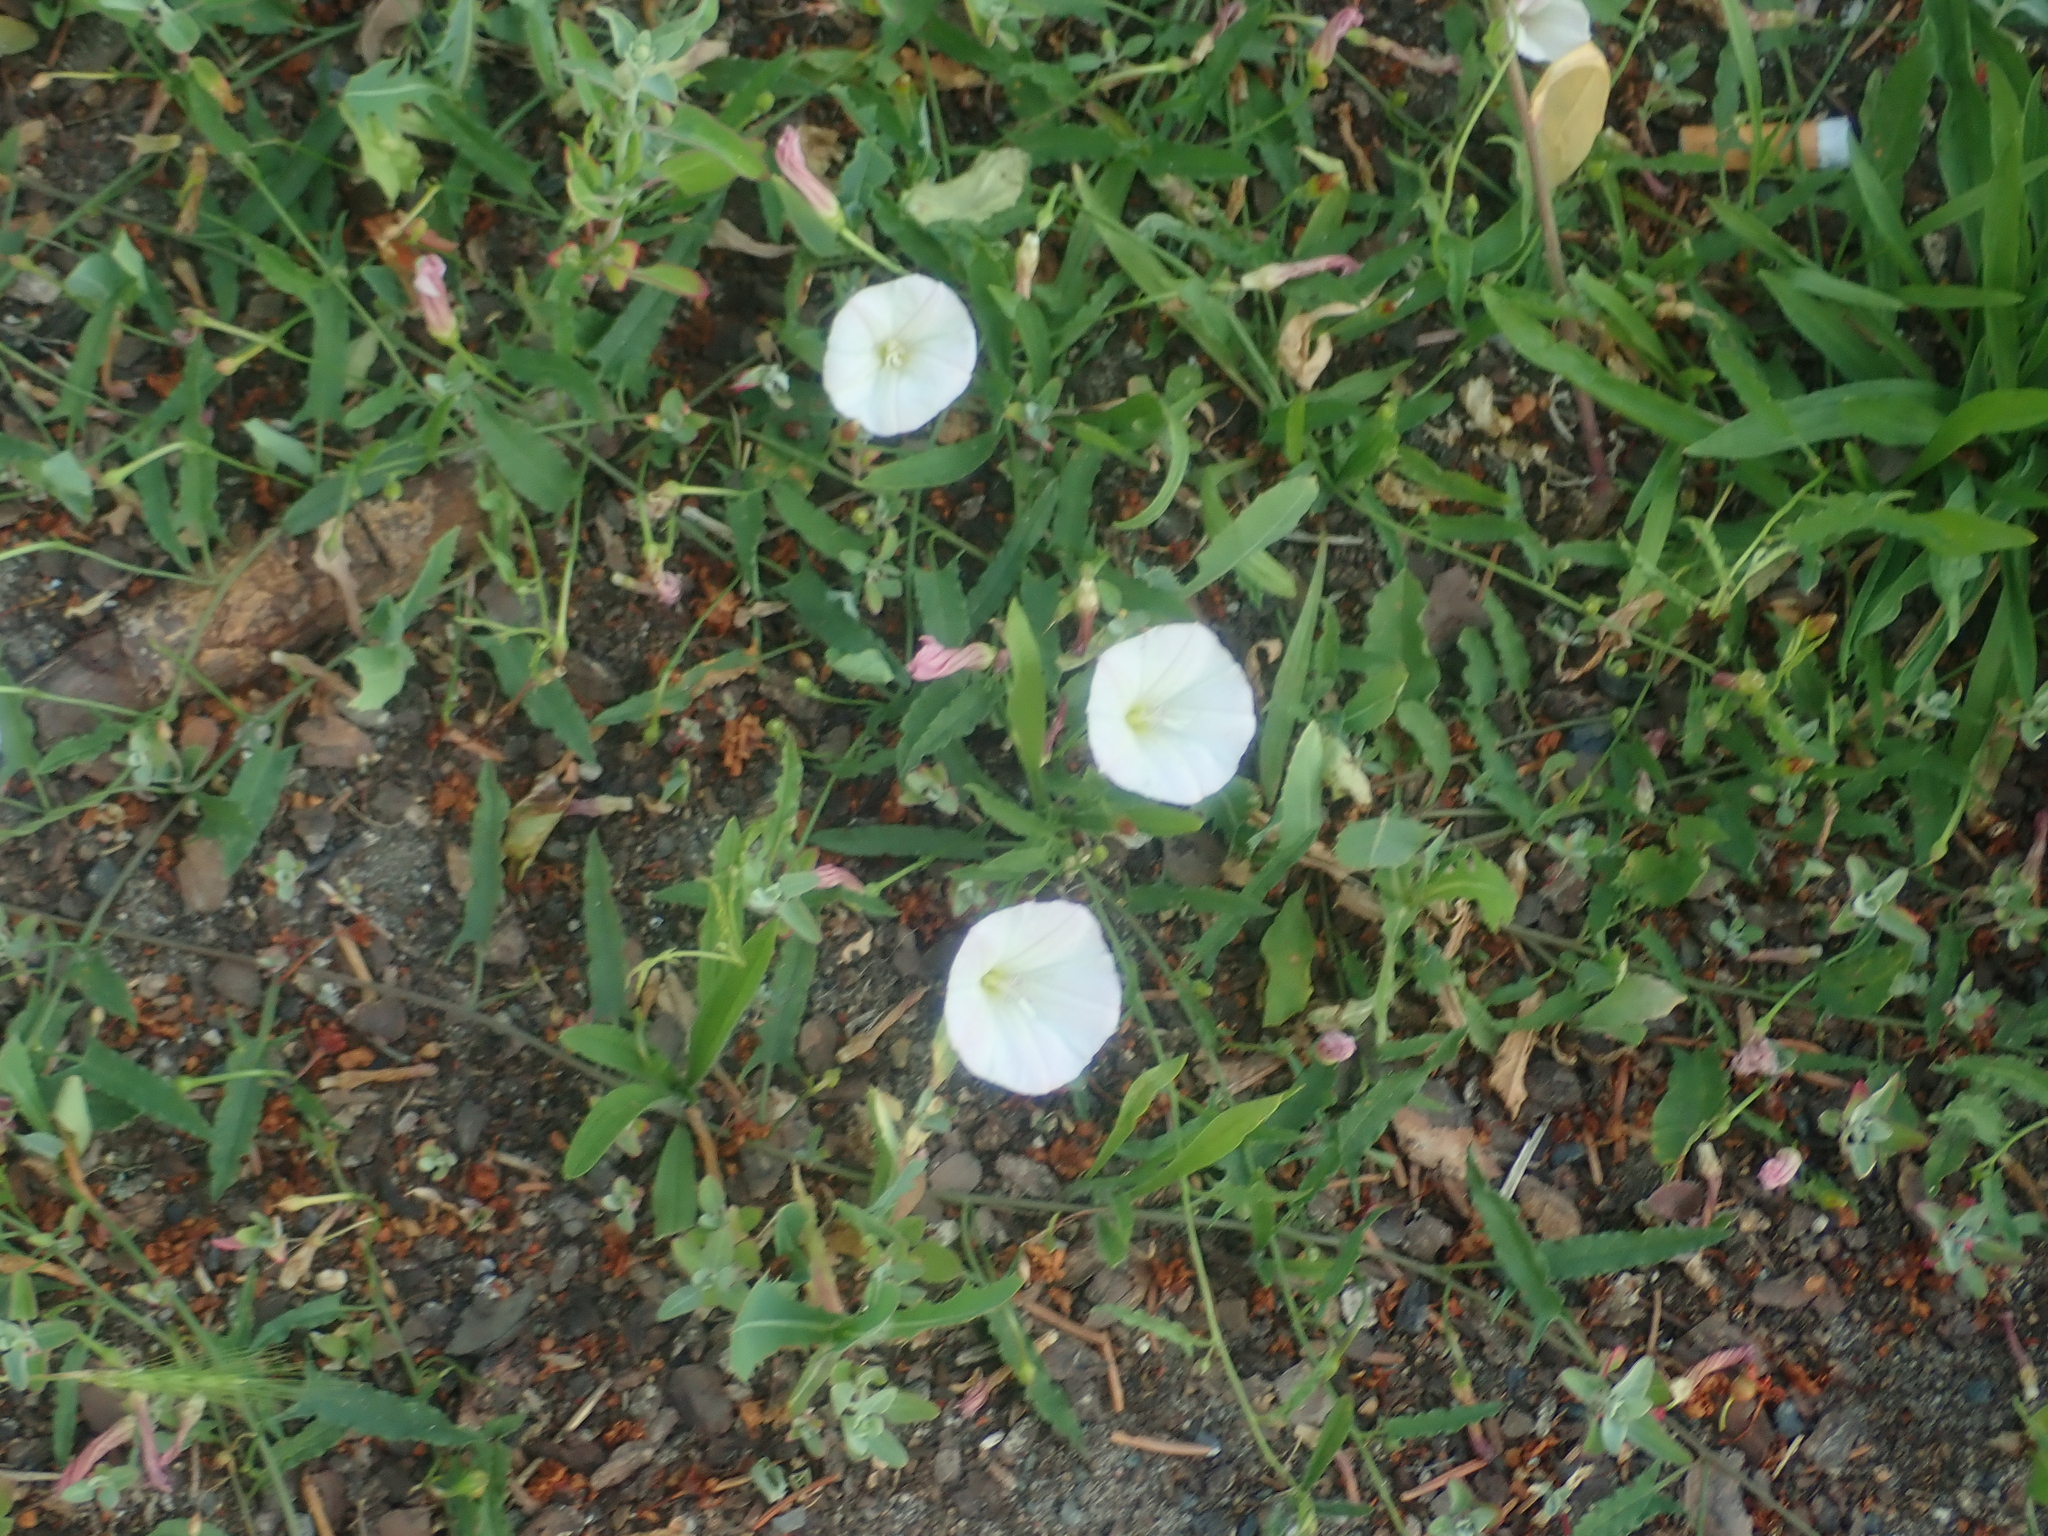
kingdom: Plantae
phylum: Tracheophyta
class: Magnoliopsida
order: Solanales
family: Convolvulaceae
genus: Convolvulus
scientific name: Convolvulus arvensis
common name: Field bindweed
